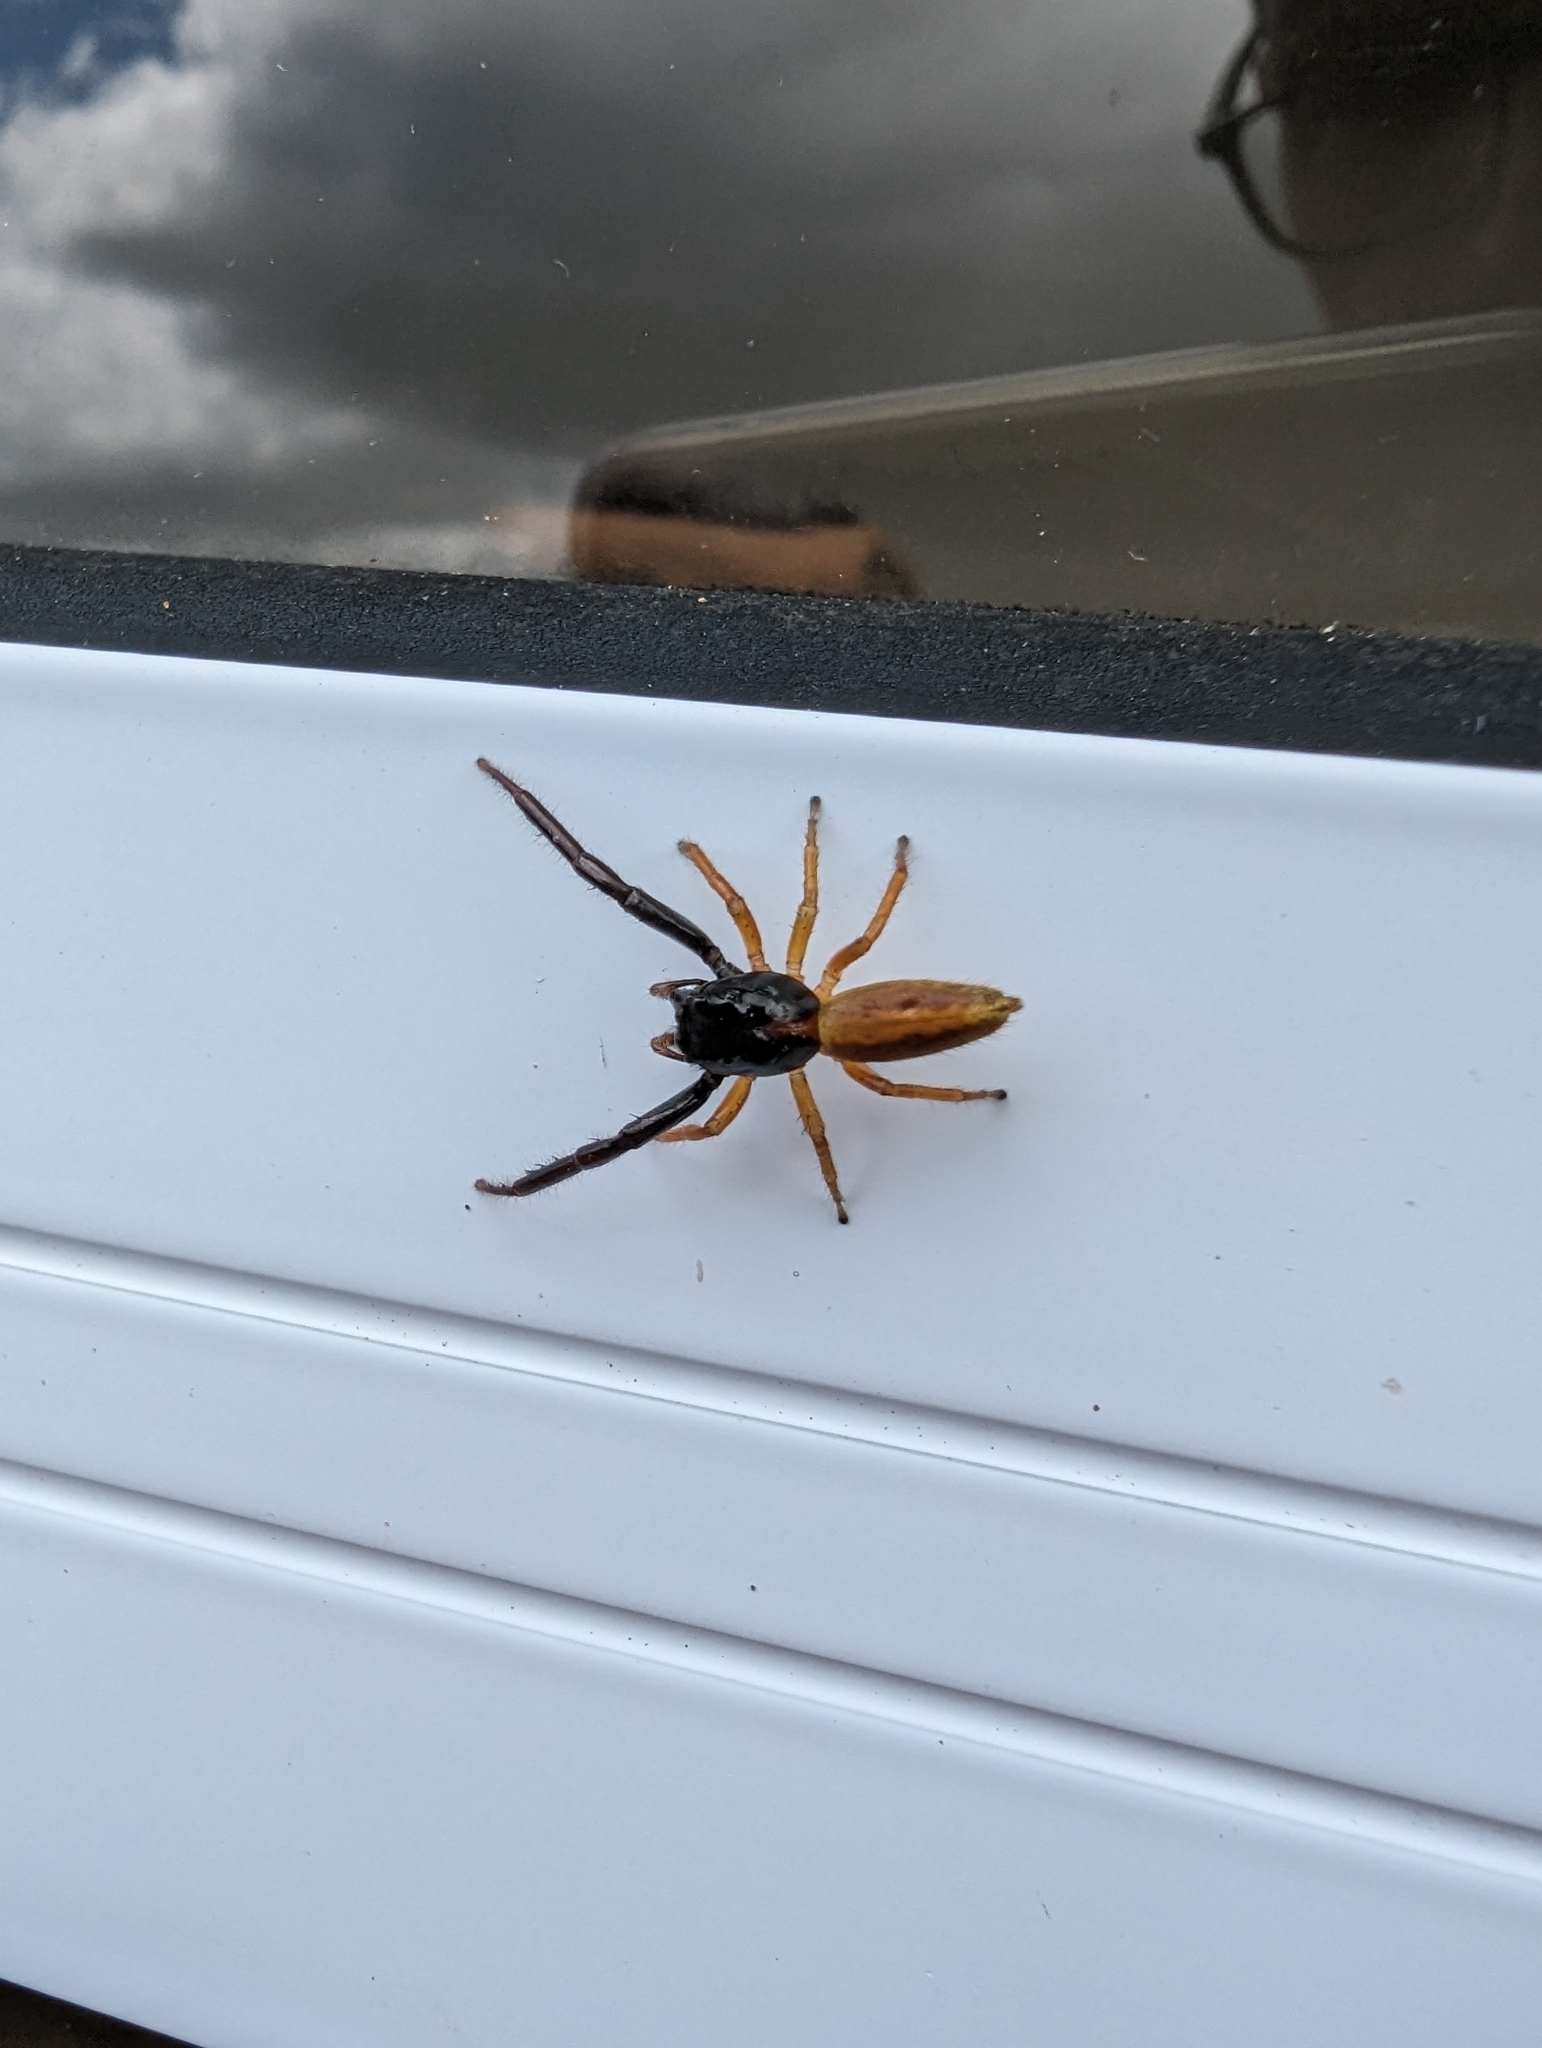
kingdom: Animalia
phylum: Arthropoda
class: Arachnida
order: Araneae
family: Salticidae
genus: Trite
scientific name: Trite planiceps
